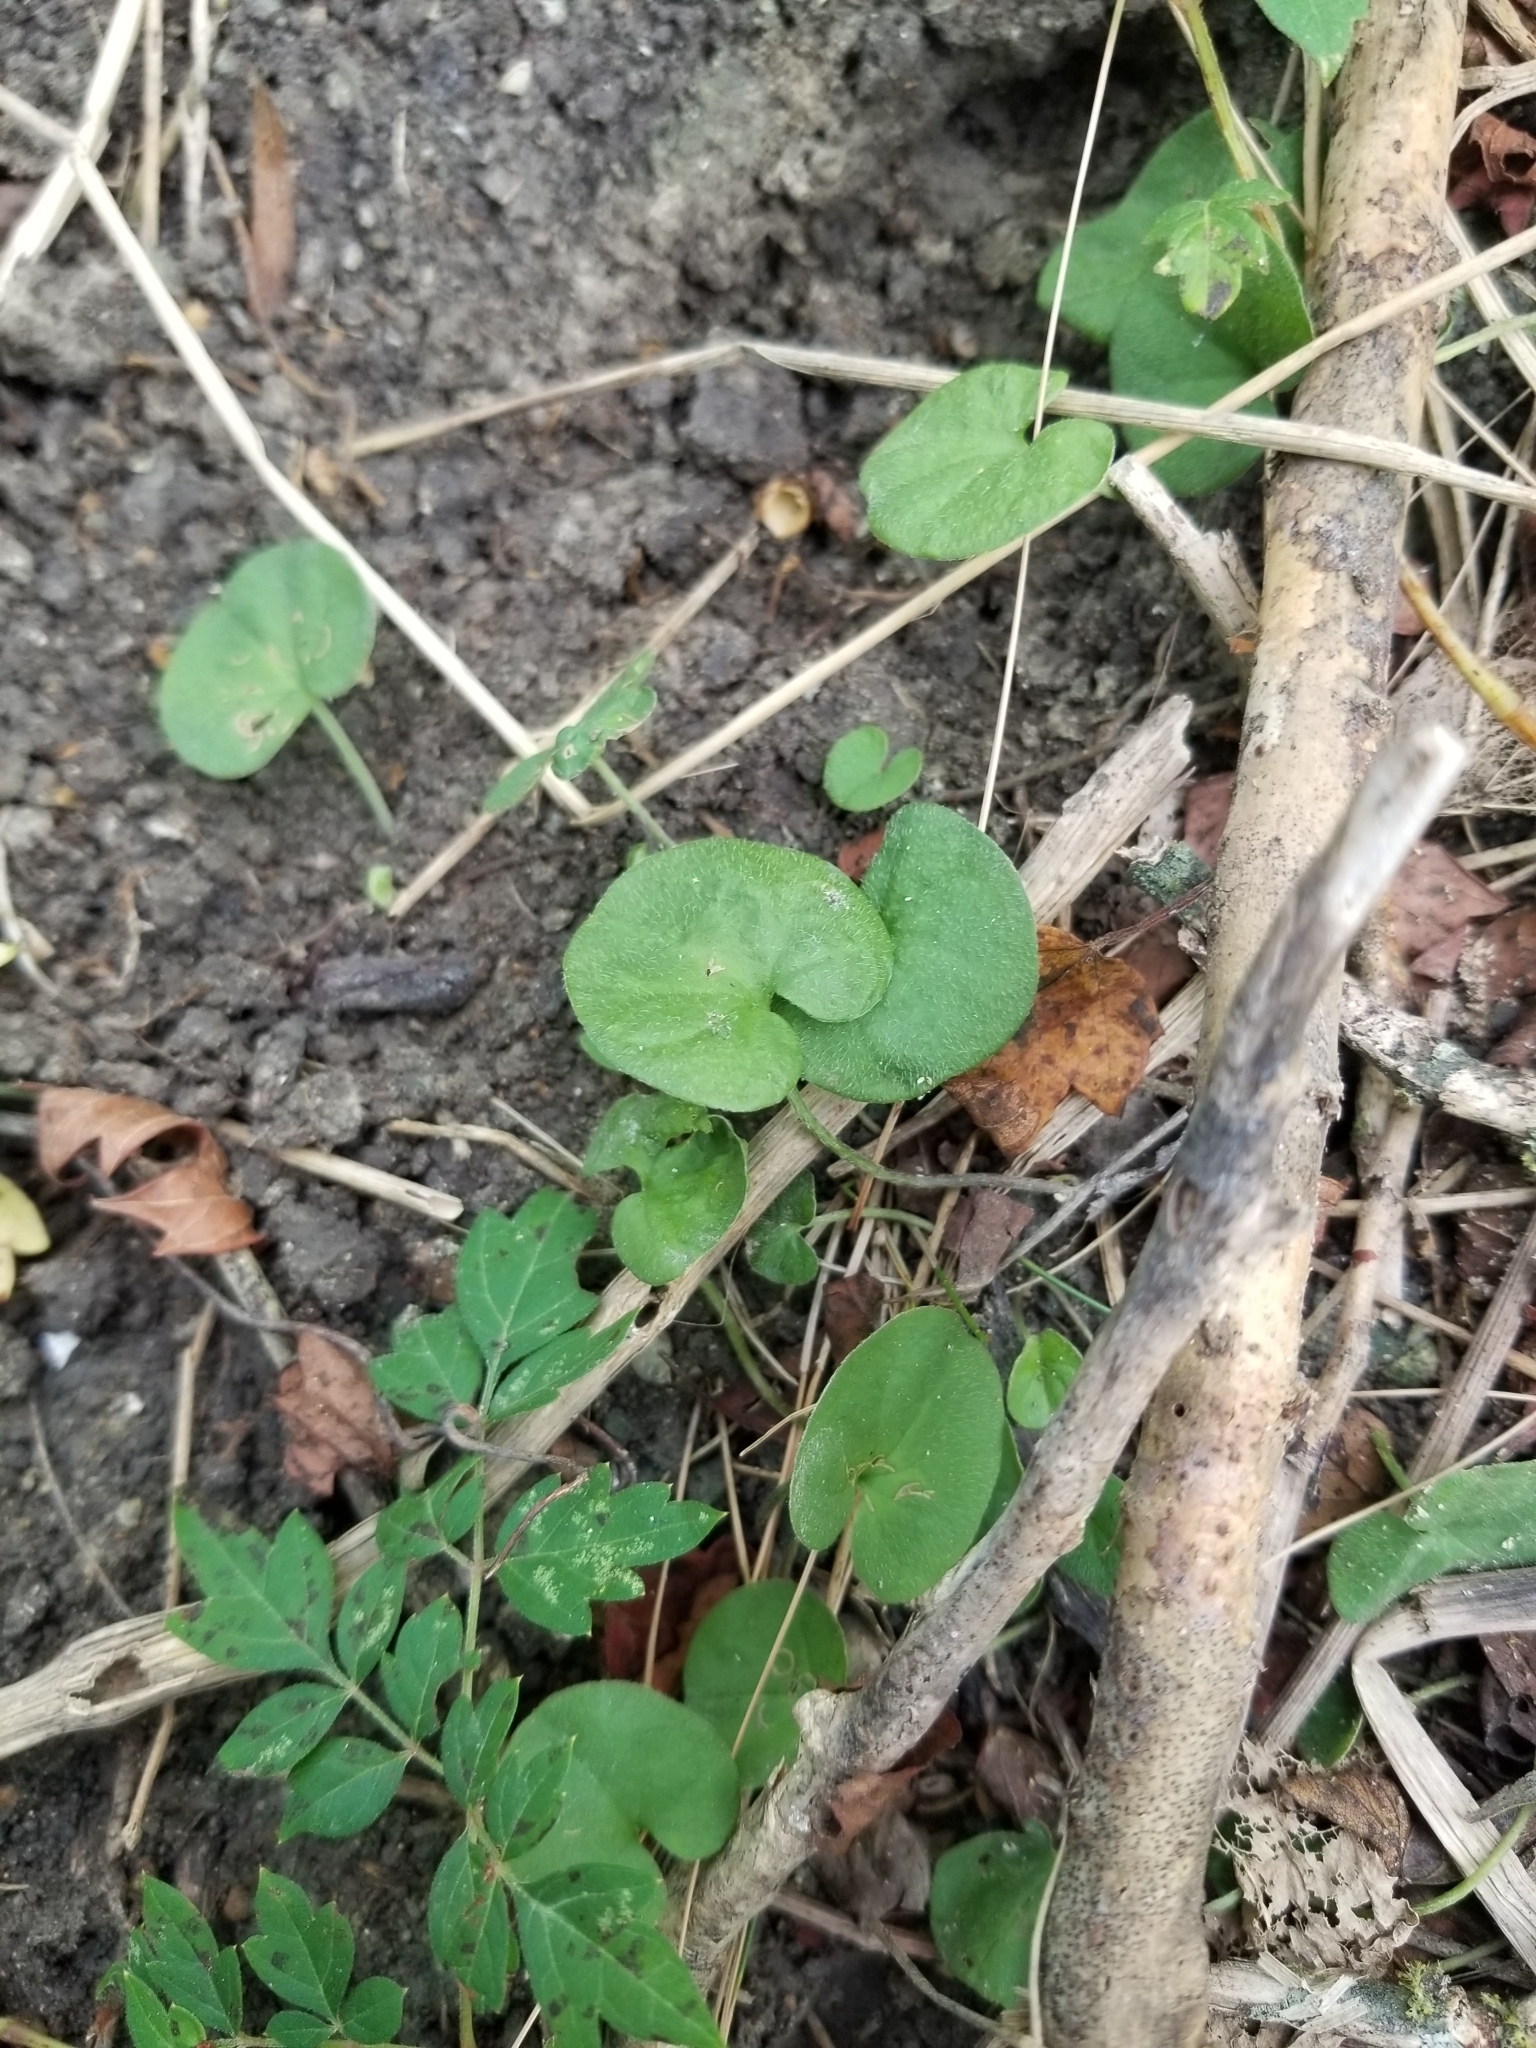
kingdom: Plantae
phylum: Tracheophyta
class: Magnoliopsida
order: Solanales
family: Convolvulaceae
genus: Dichondra
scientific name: Dichondra carolinensis
